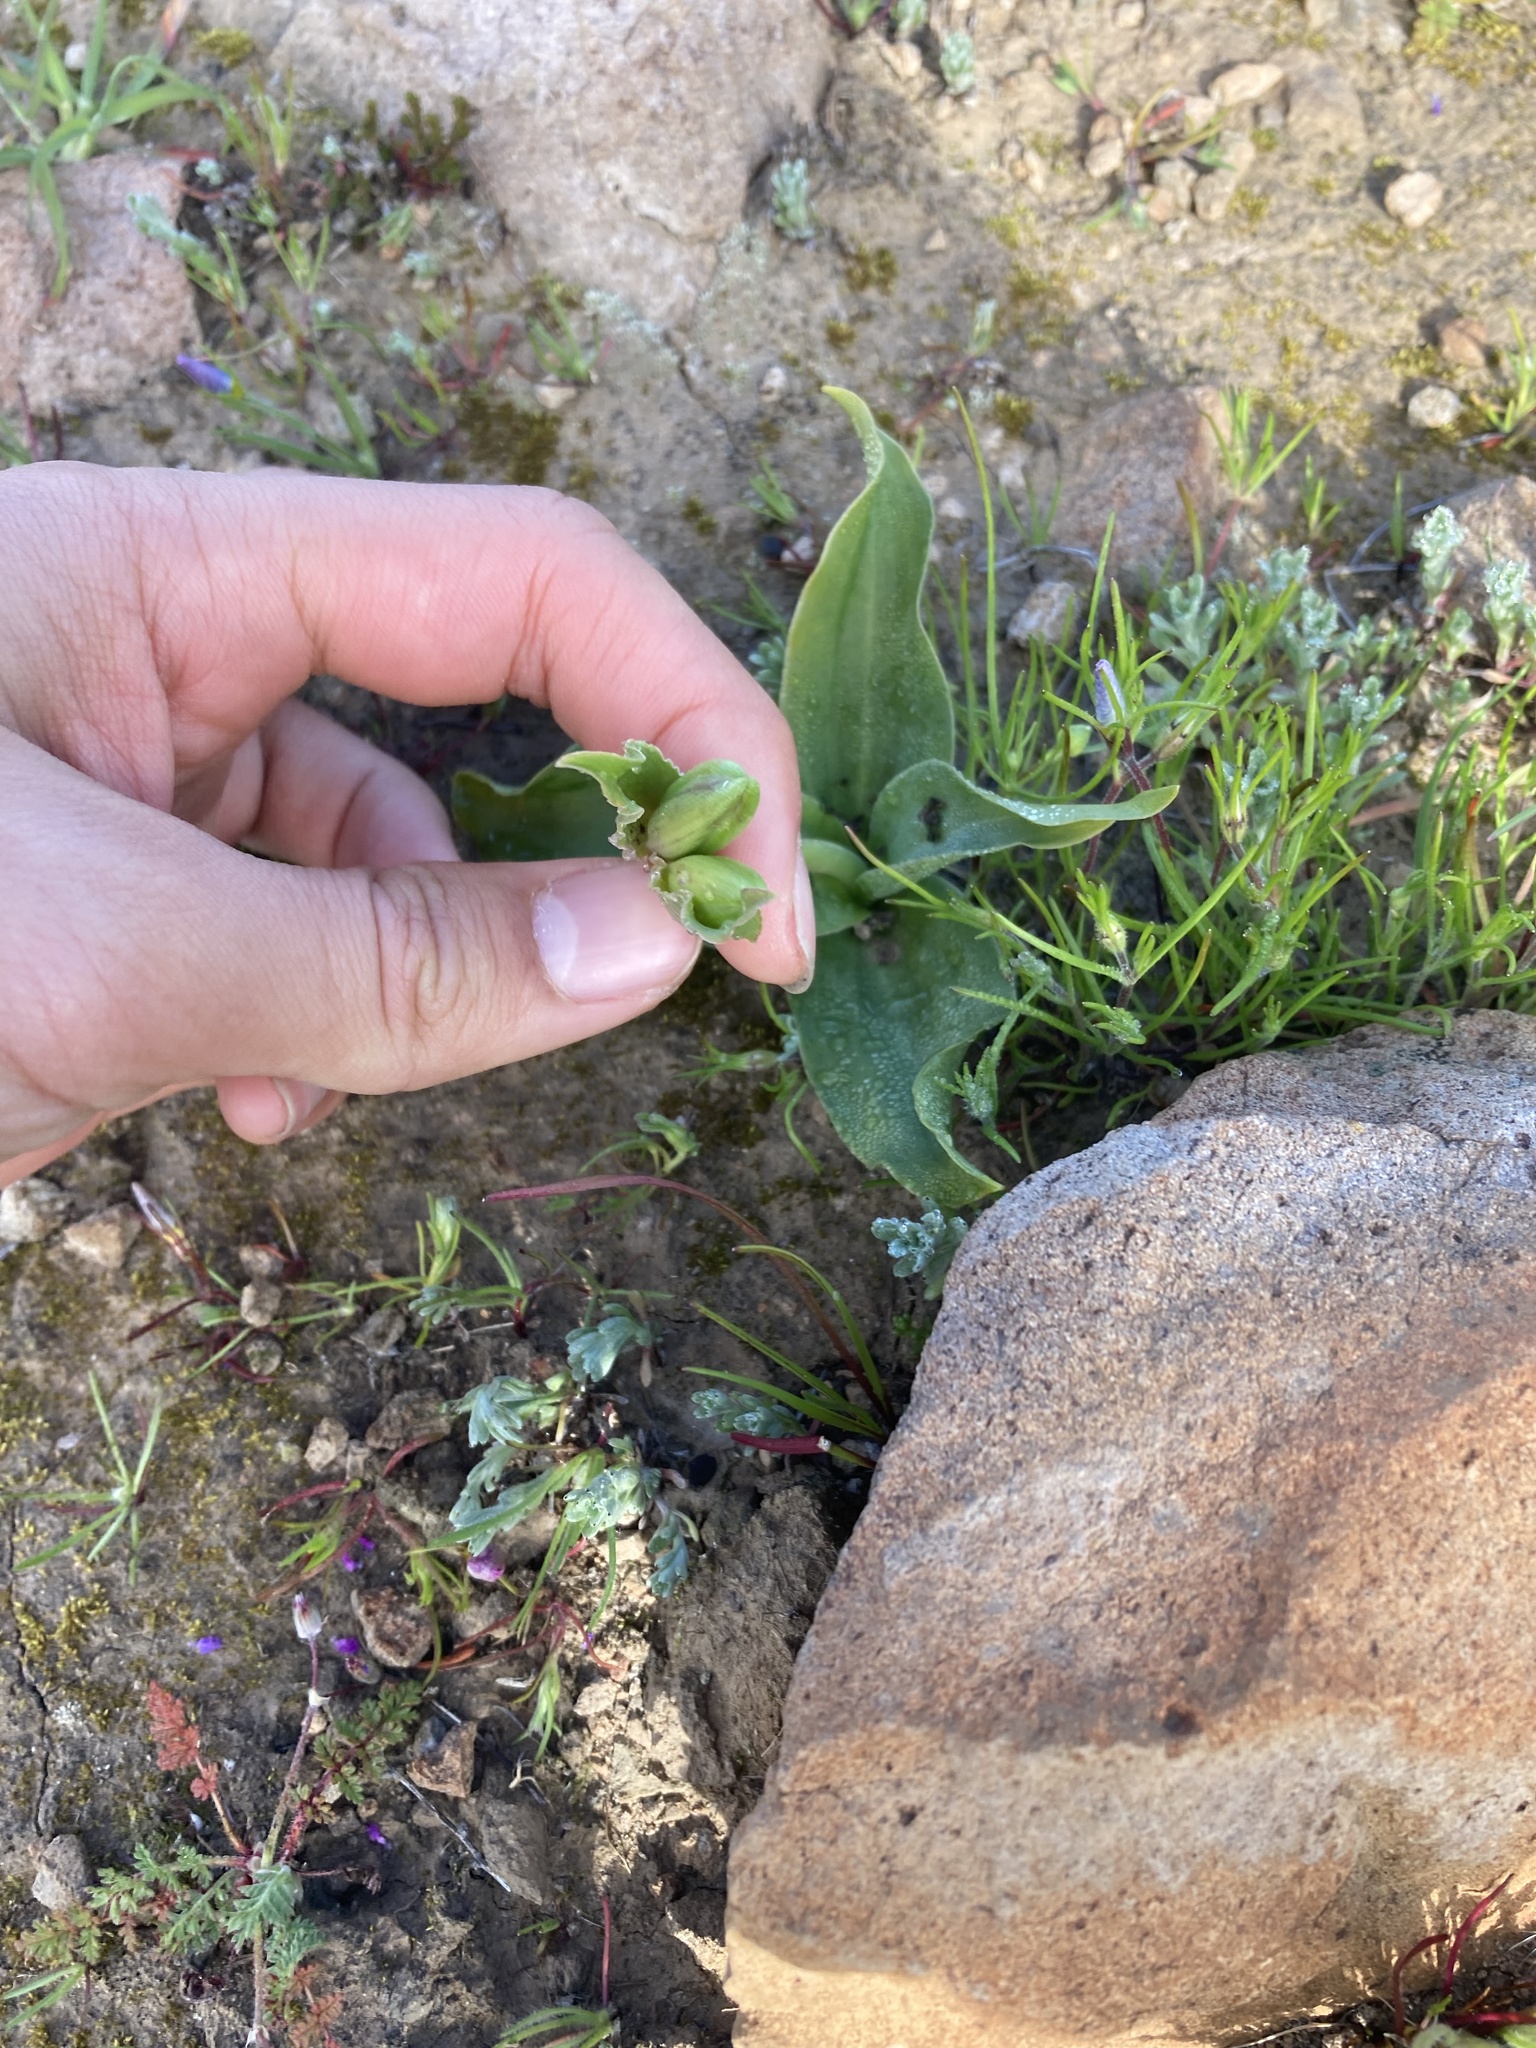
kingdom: Plantae
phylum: Tracheophyta
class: Liliopsida
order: Liliales
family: Liliaceae
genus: Fritillaria
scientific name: Fritillaria biflora
